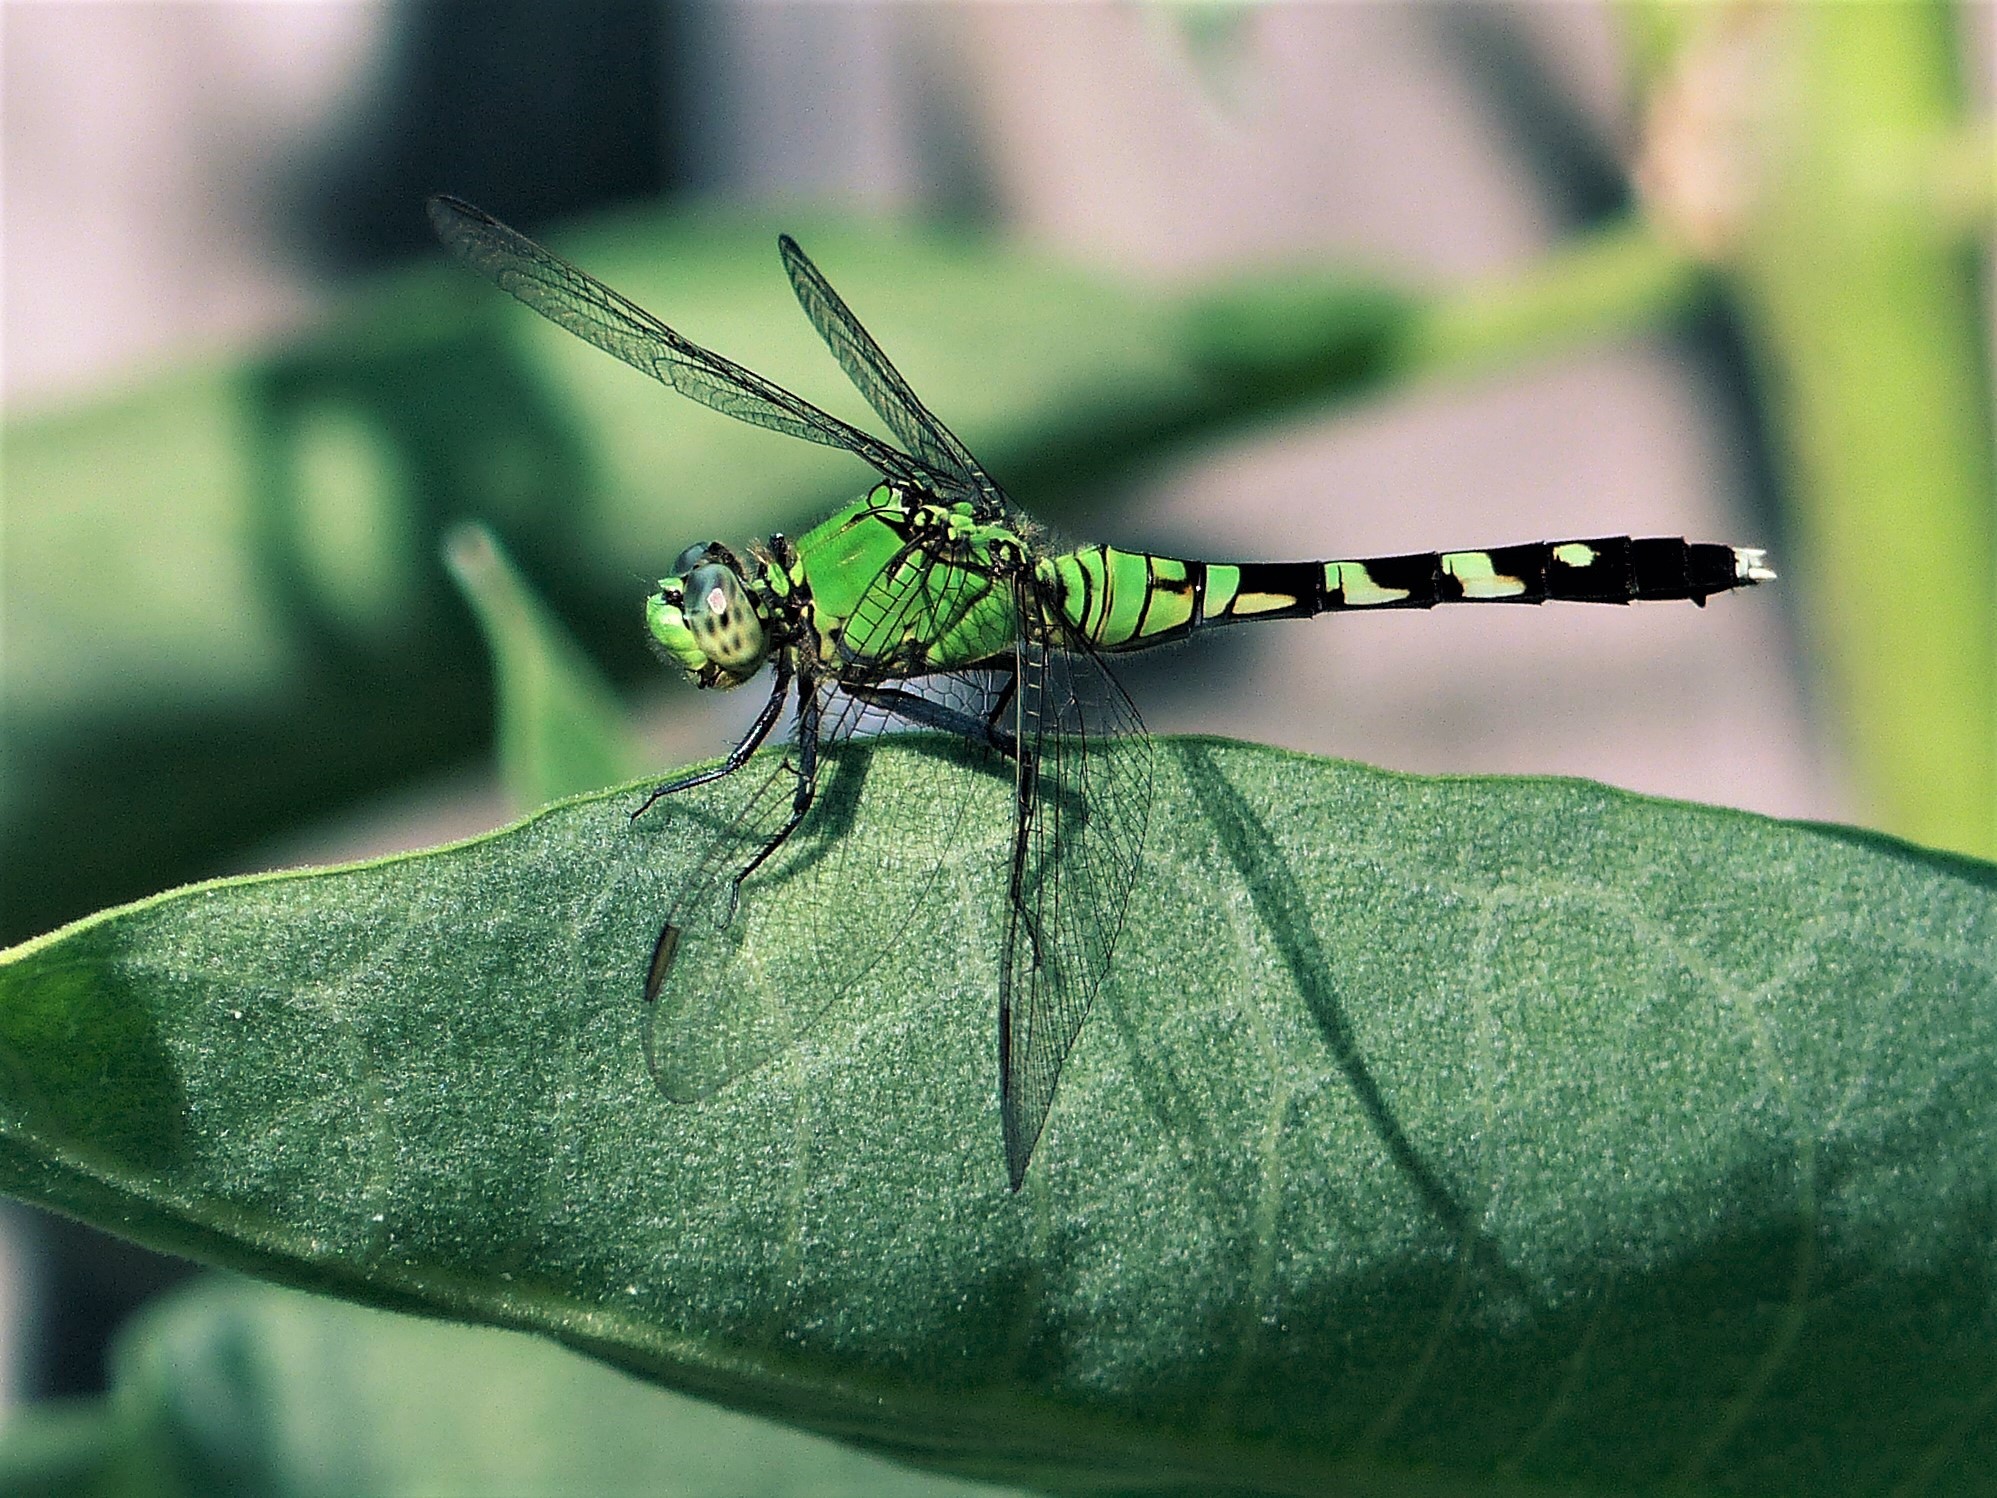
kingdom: Animalia
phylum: Arthropoda
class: Insecta
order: Odonata
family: Libellulidae
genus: Erythemis
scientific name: Erythemis simplicicollis
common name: Eastern pondhawk
